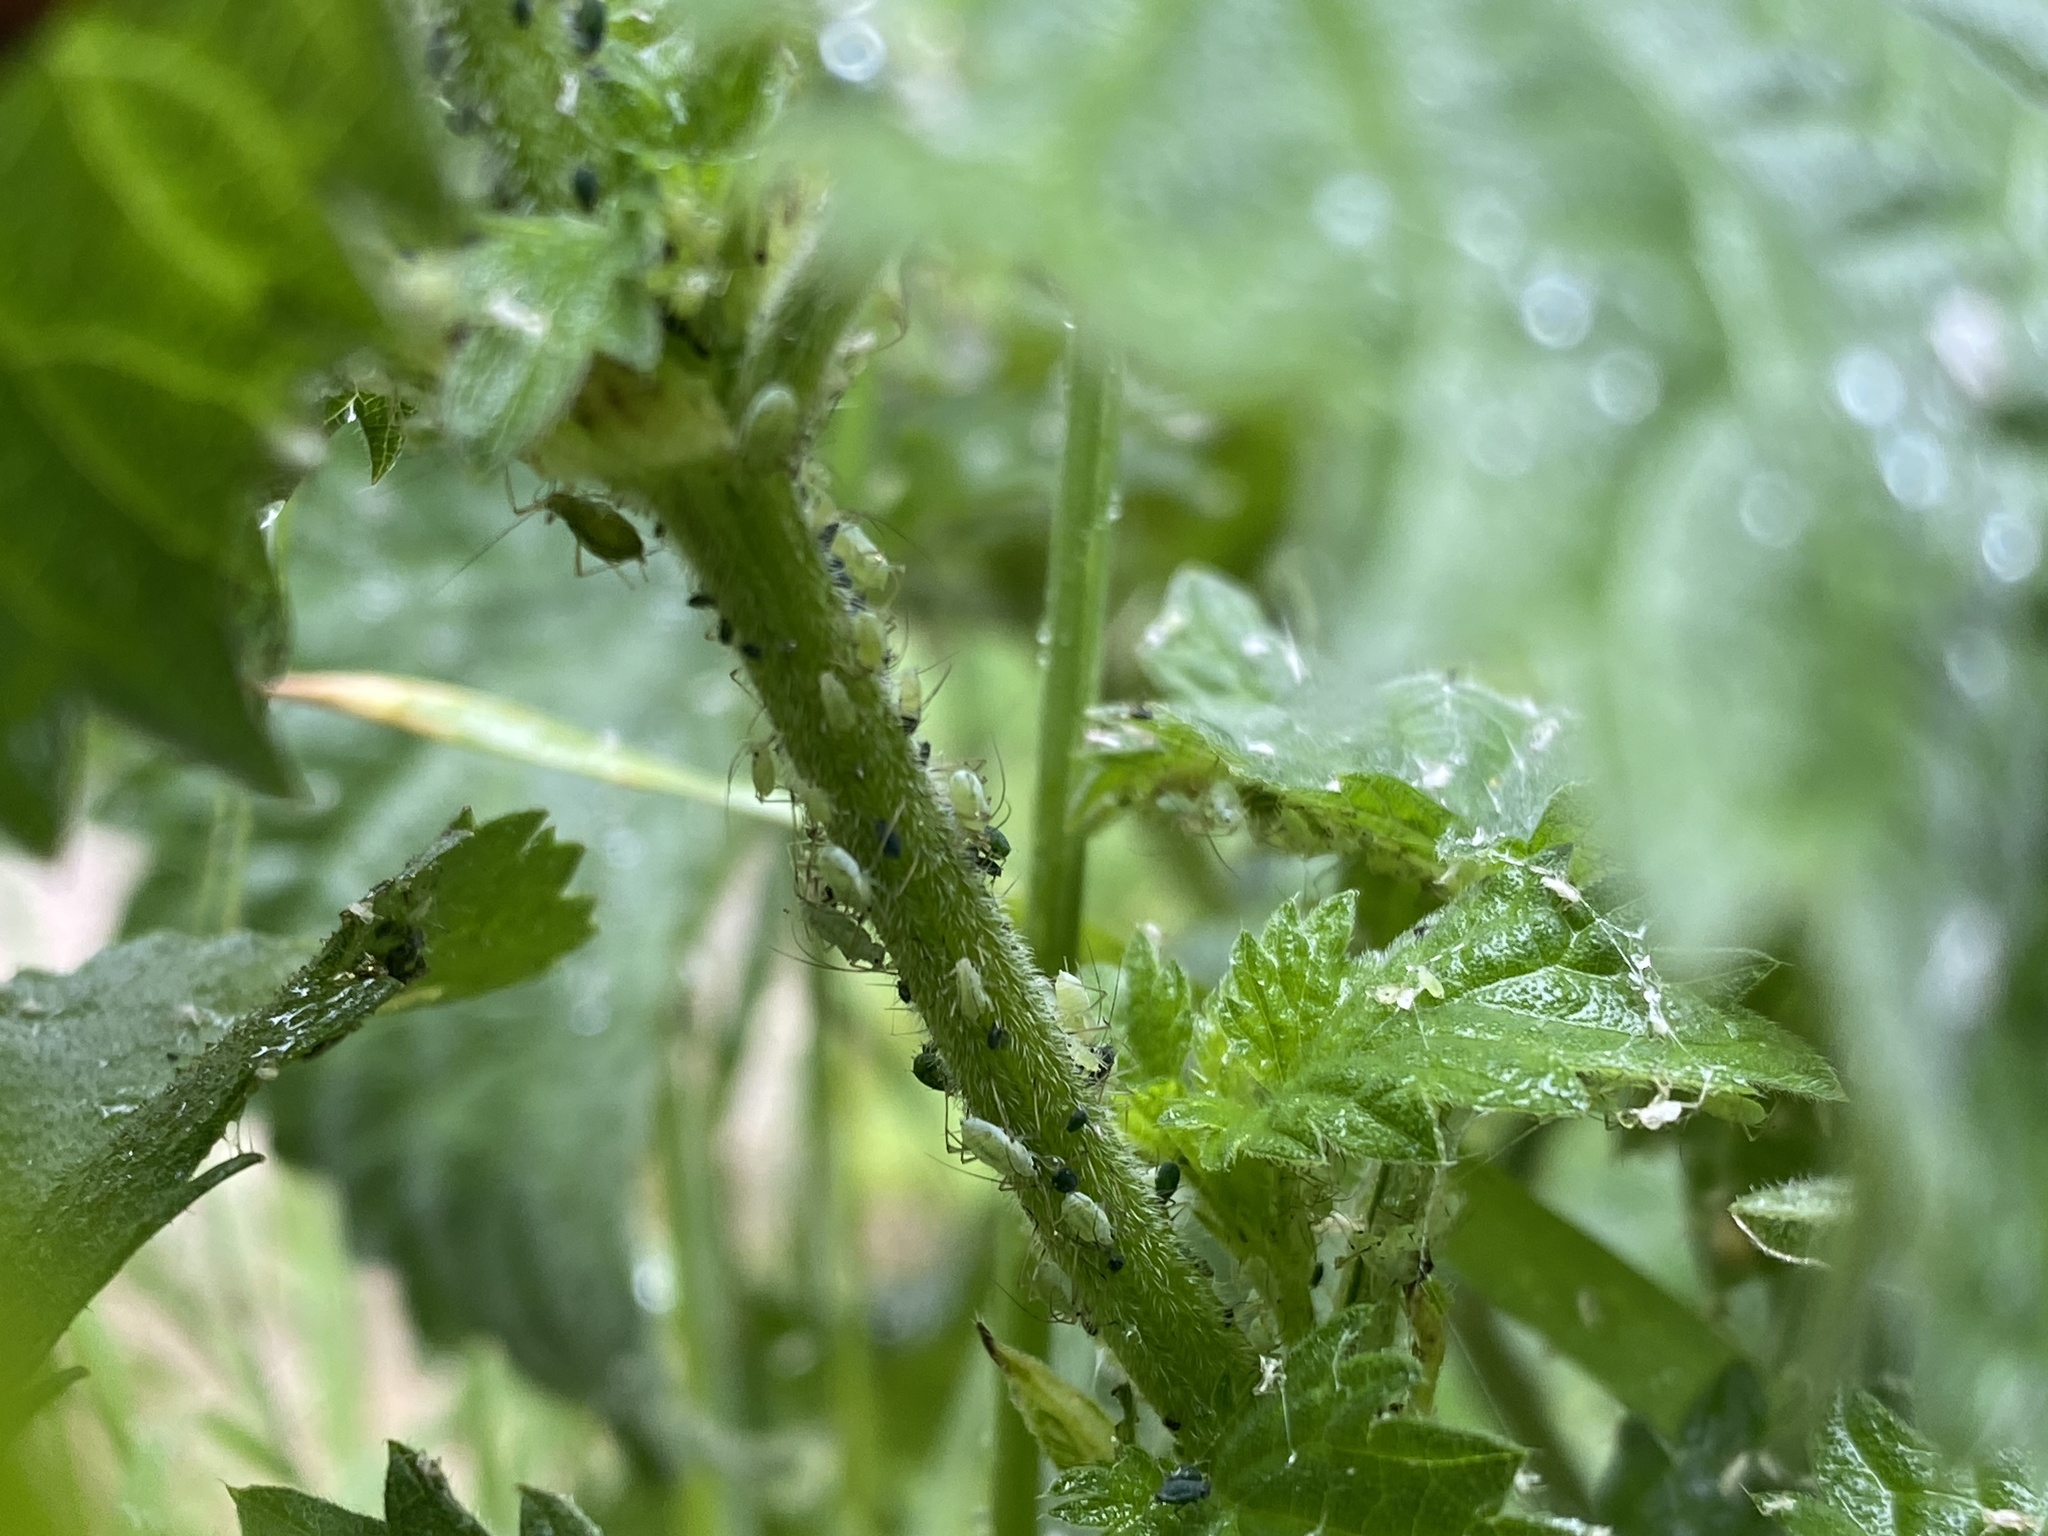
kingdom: Animalia
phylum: Arthropoda
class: Insecta
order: Hemiptera
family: Aphididae
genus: Microlophium
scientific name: Microlophium carnosum
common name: Aphid
